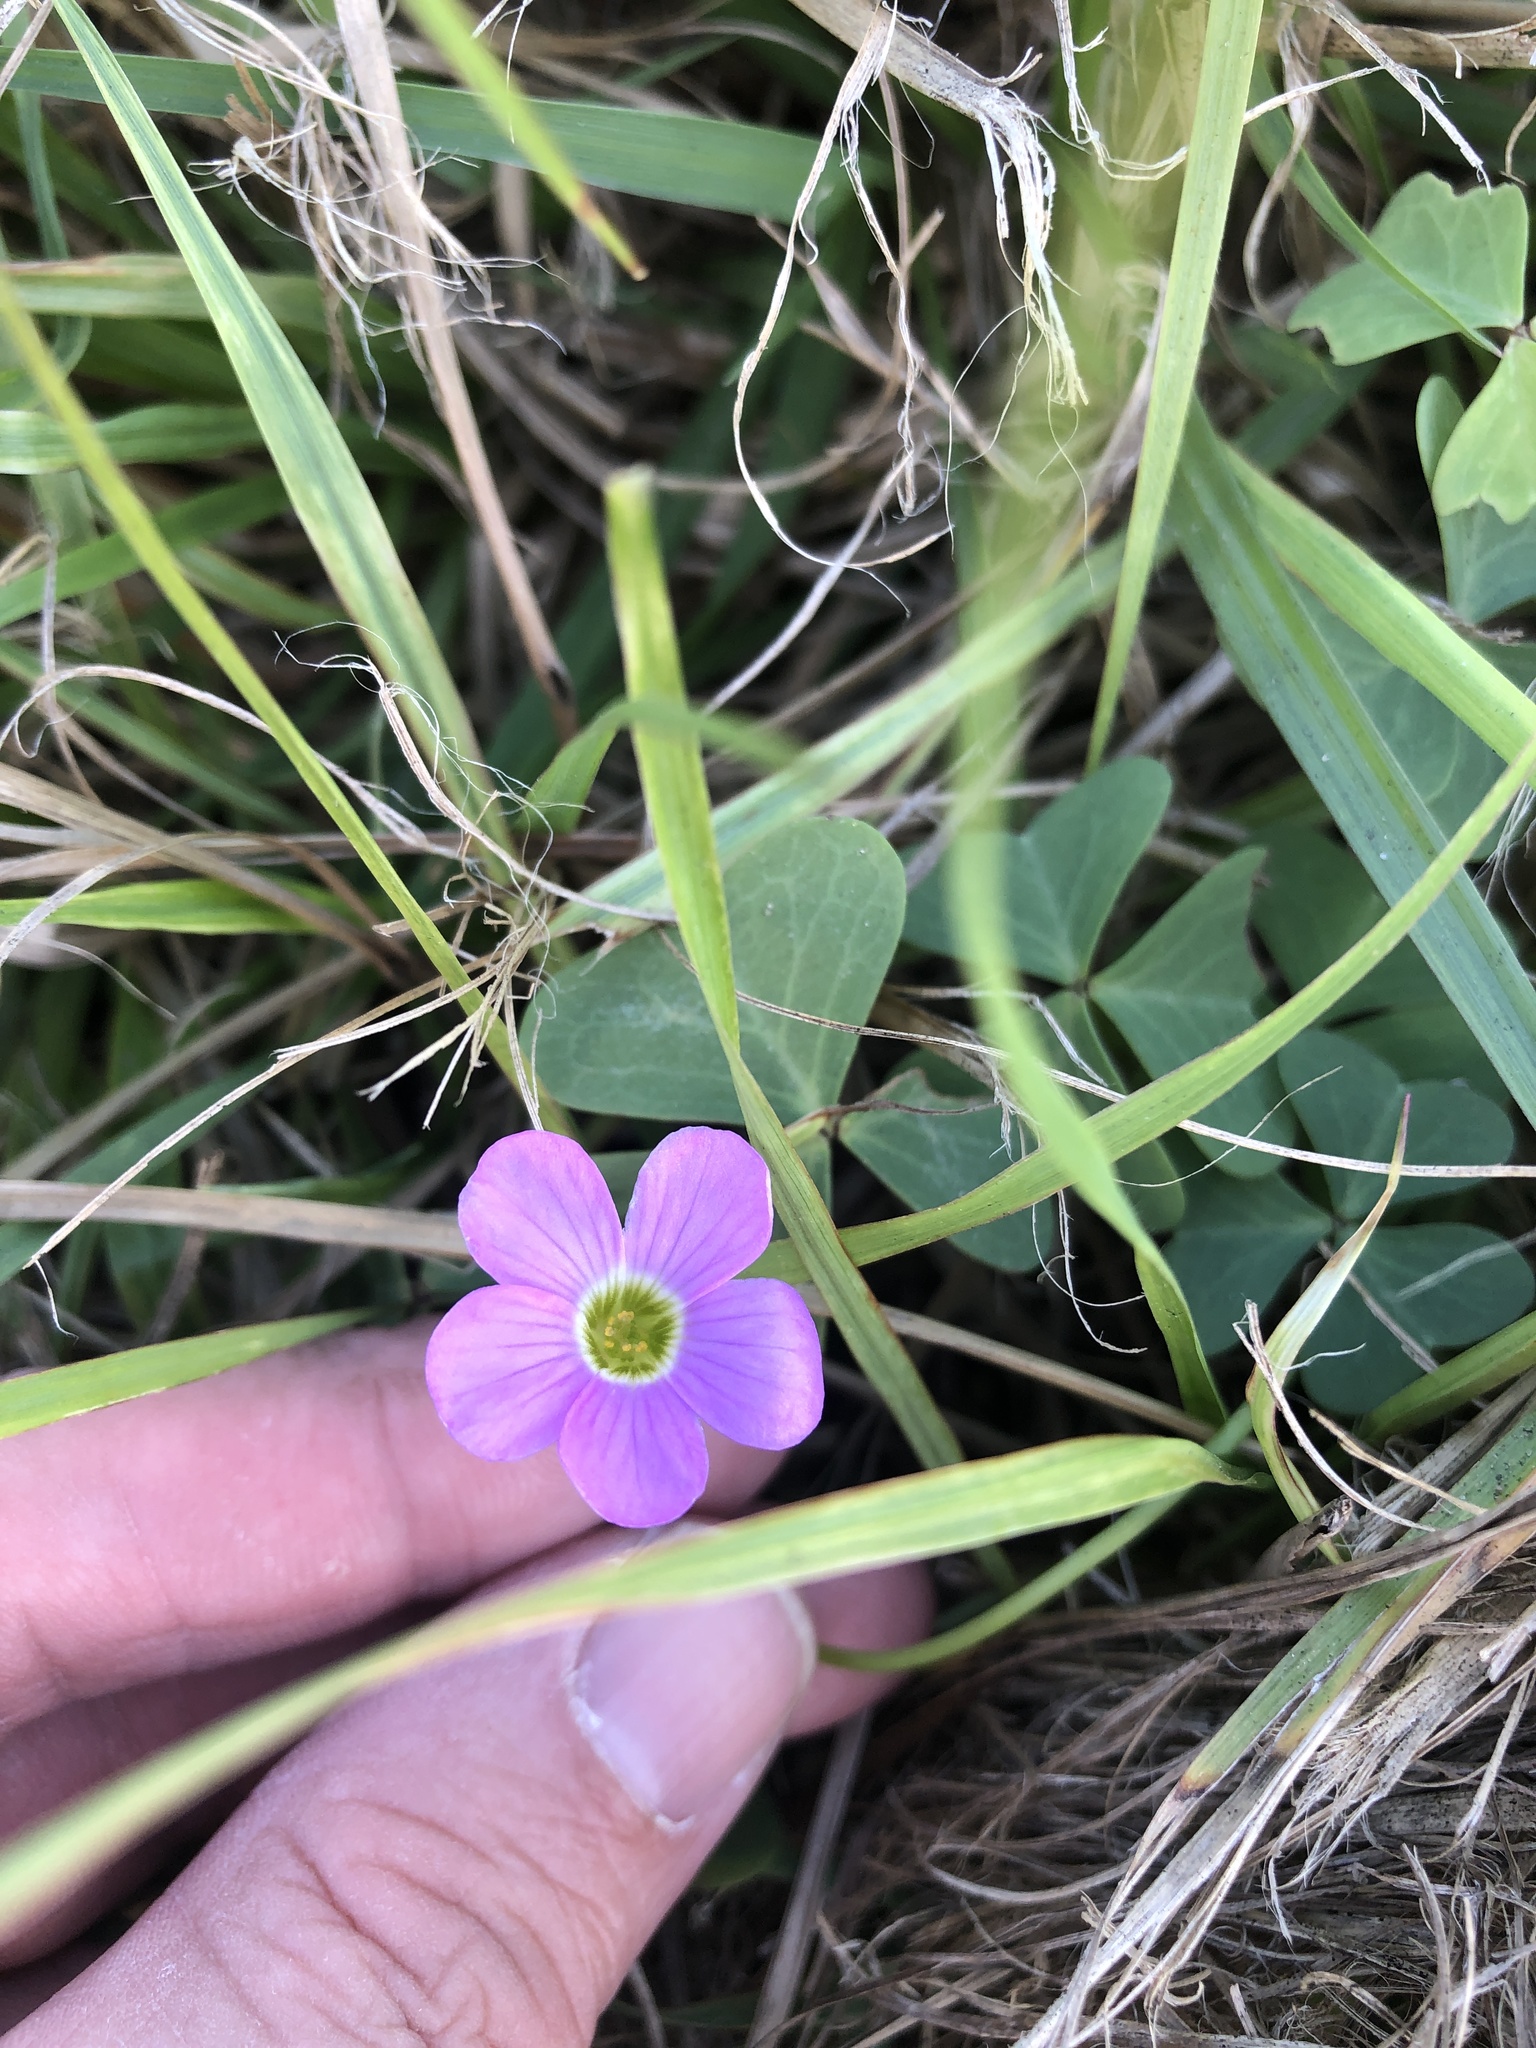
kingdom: Plantae
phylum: Tracheophyta
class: Magnoliopsida
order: Oxalidales
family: Oxalidaceae
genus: Oxalis
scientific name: Oxalis drummondii
